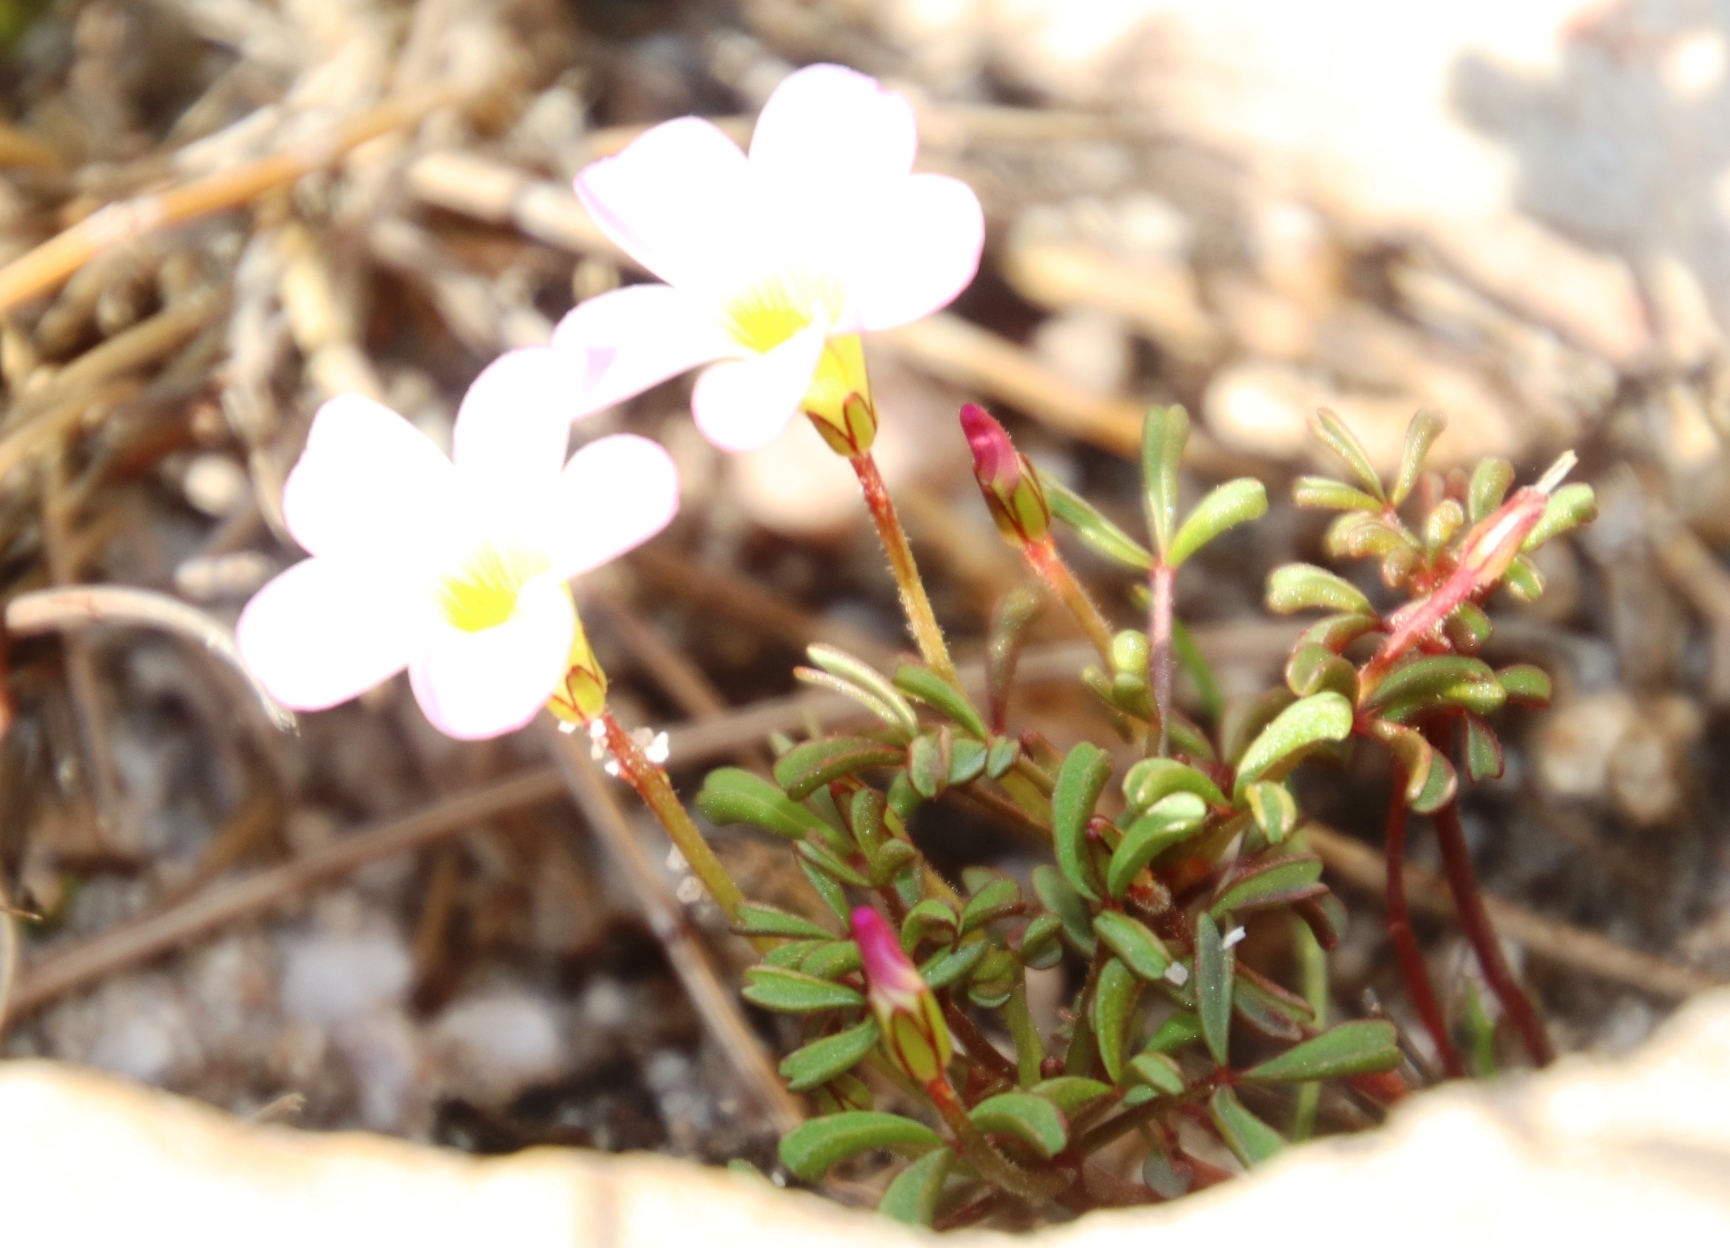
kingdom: Plantae
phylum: Tracheophyta
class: Magnoliopsida
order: Oxalidales
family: Oxalidaceae
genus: Oxalis
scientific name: Oxalis recticaulis
